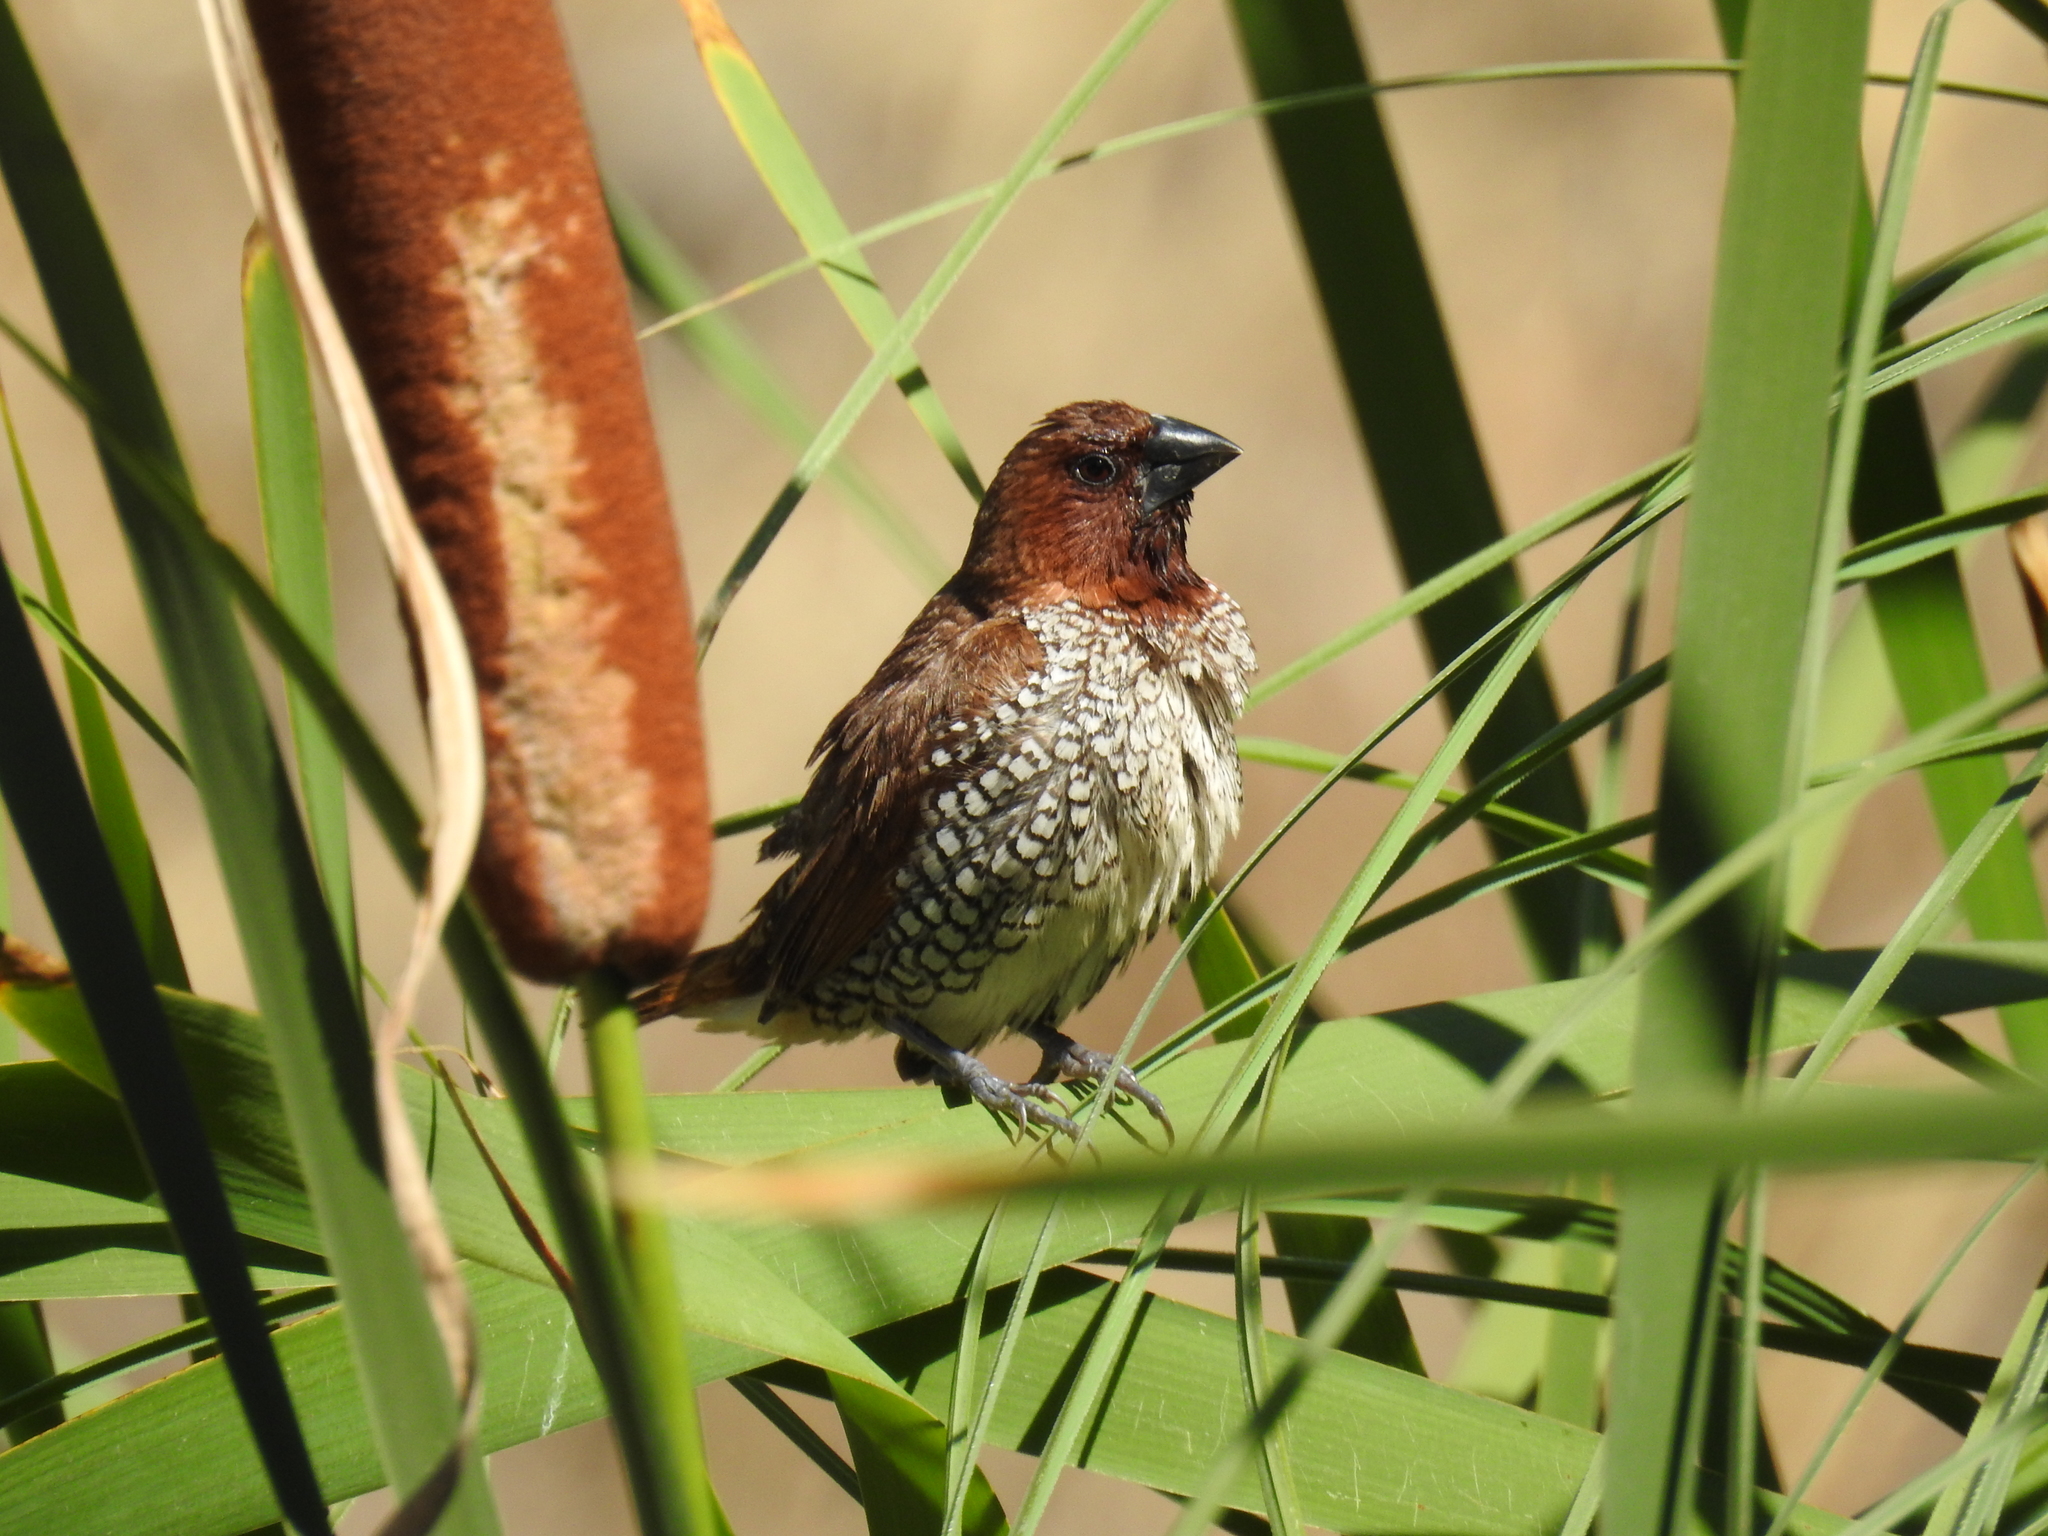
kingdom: Animalia
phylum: Chordata
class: Aves
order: Passeriformes
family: Estrildidae
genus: Lonchura
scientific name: Lonchura punctulata
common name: Scaly-breasted munia
